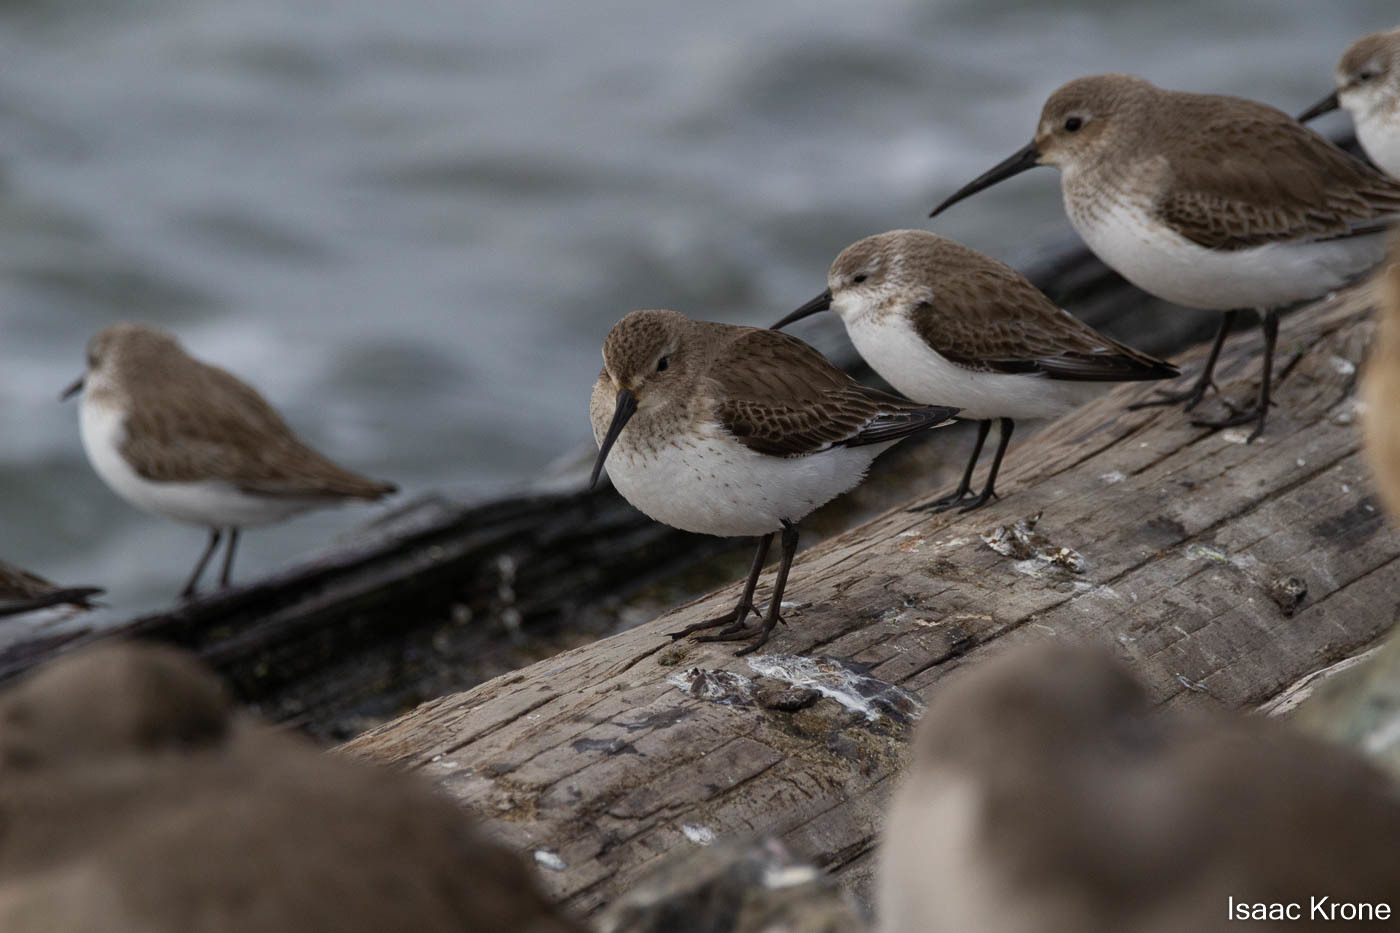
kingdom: Animalia
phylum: Chordata
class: Aves
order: Charadriiformes
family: Scolopacidae
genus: Calidris
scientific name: Calidris alpina
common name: Dunlin
